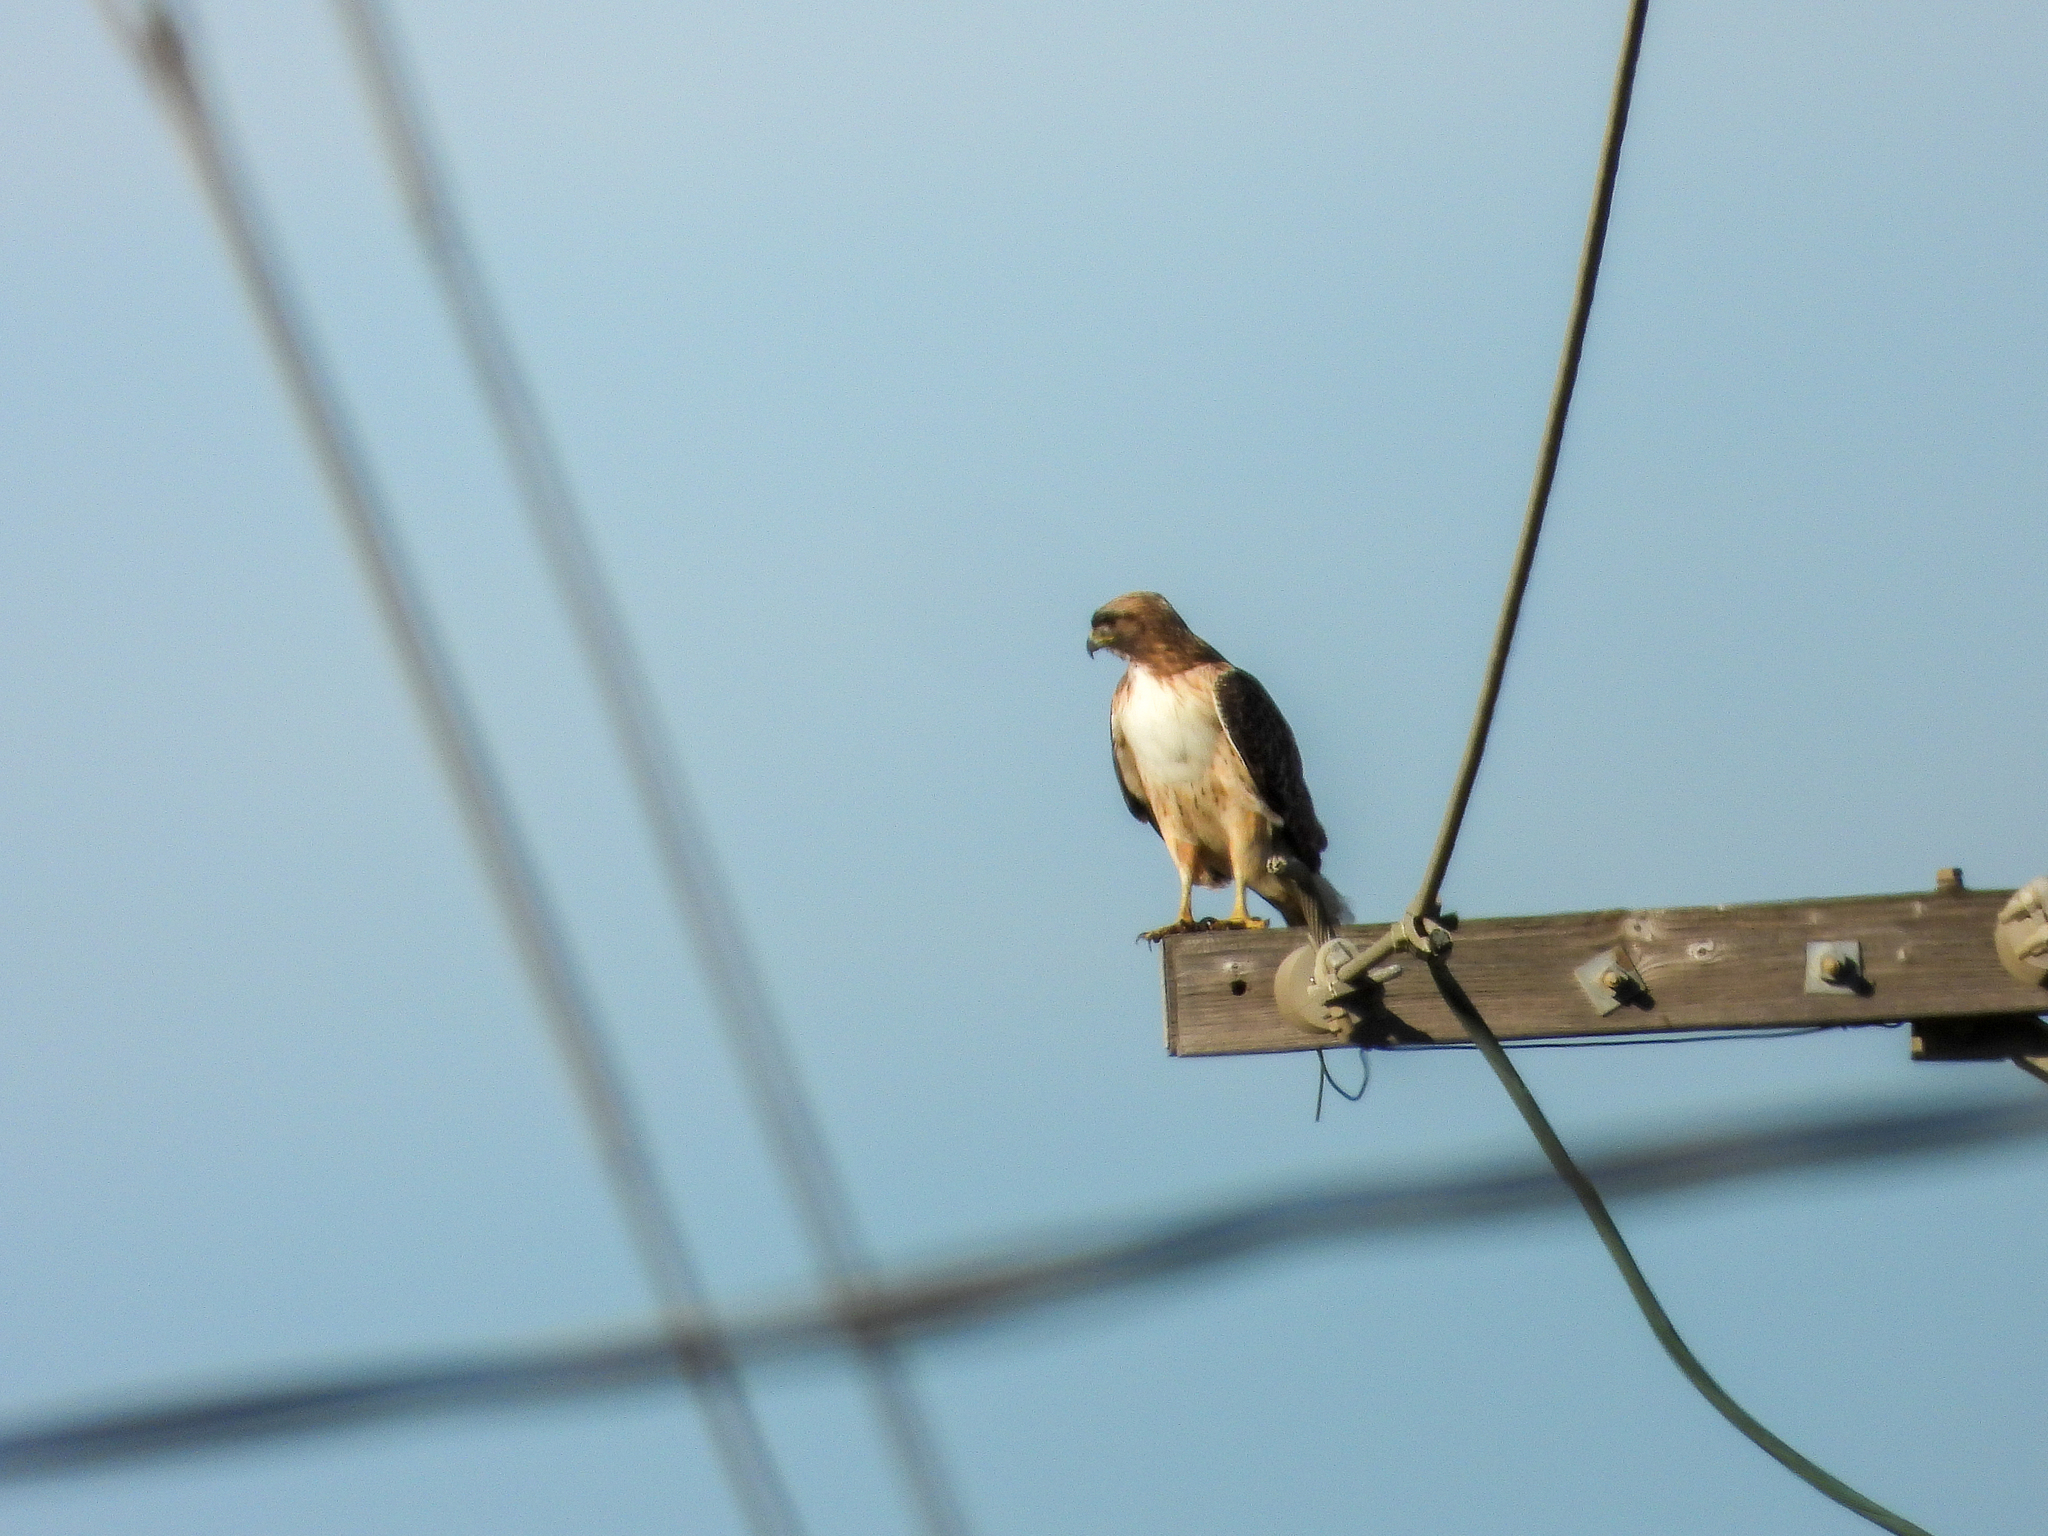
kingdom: Animalia
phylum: Chordata
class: Aves
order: Accipitriformes
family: Accipitridae
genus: Buteo
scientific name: Buteo jamaicensis
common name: Red-tailed hawk
